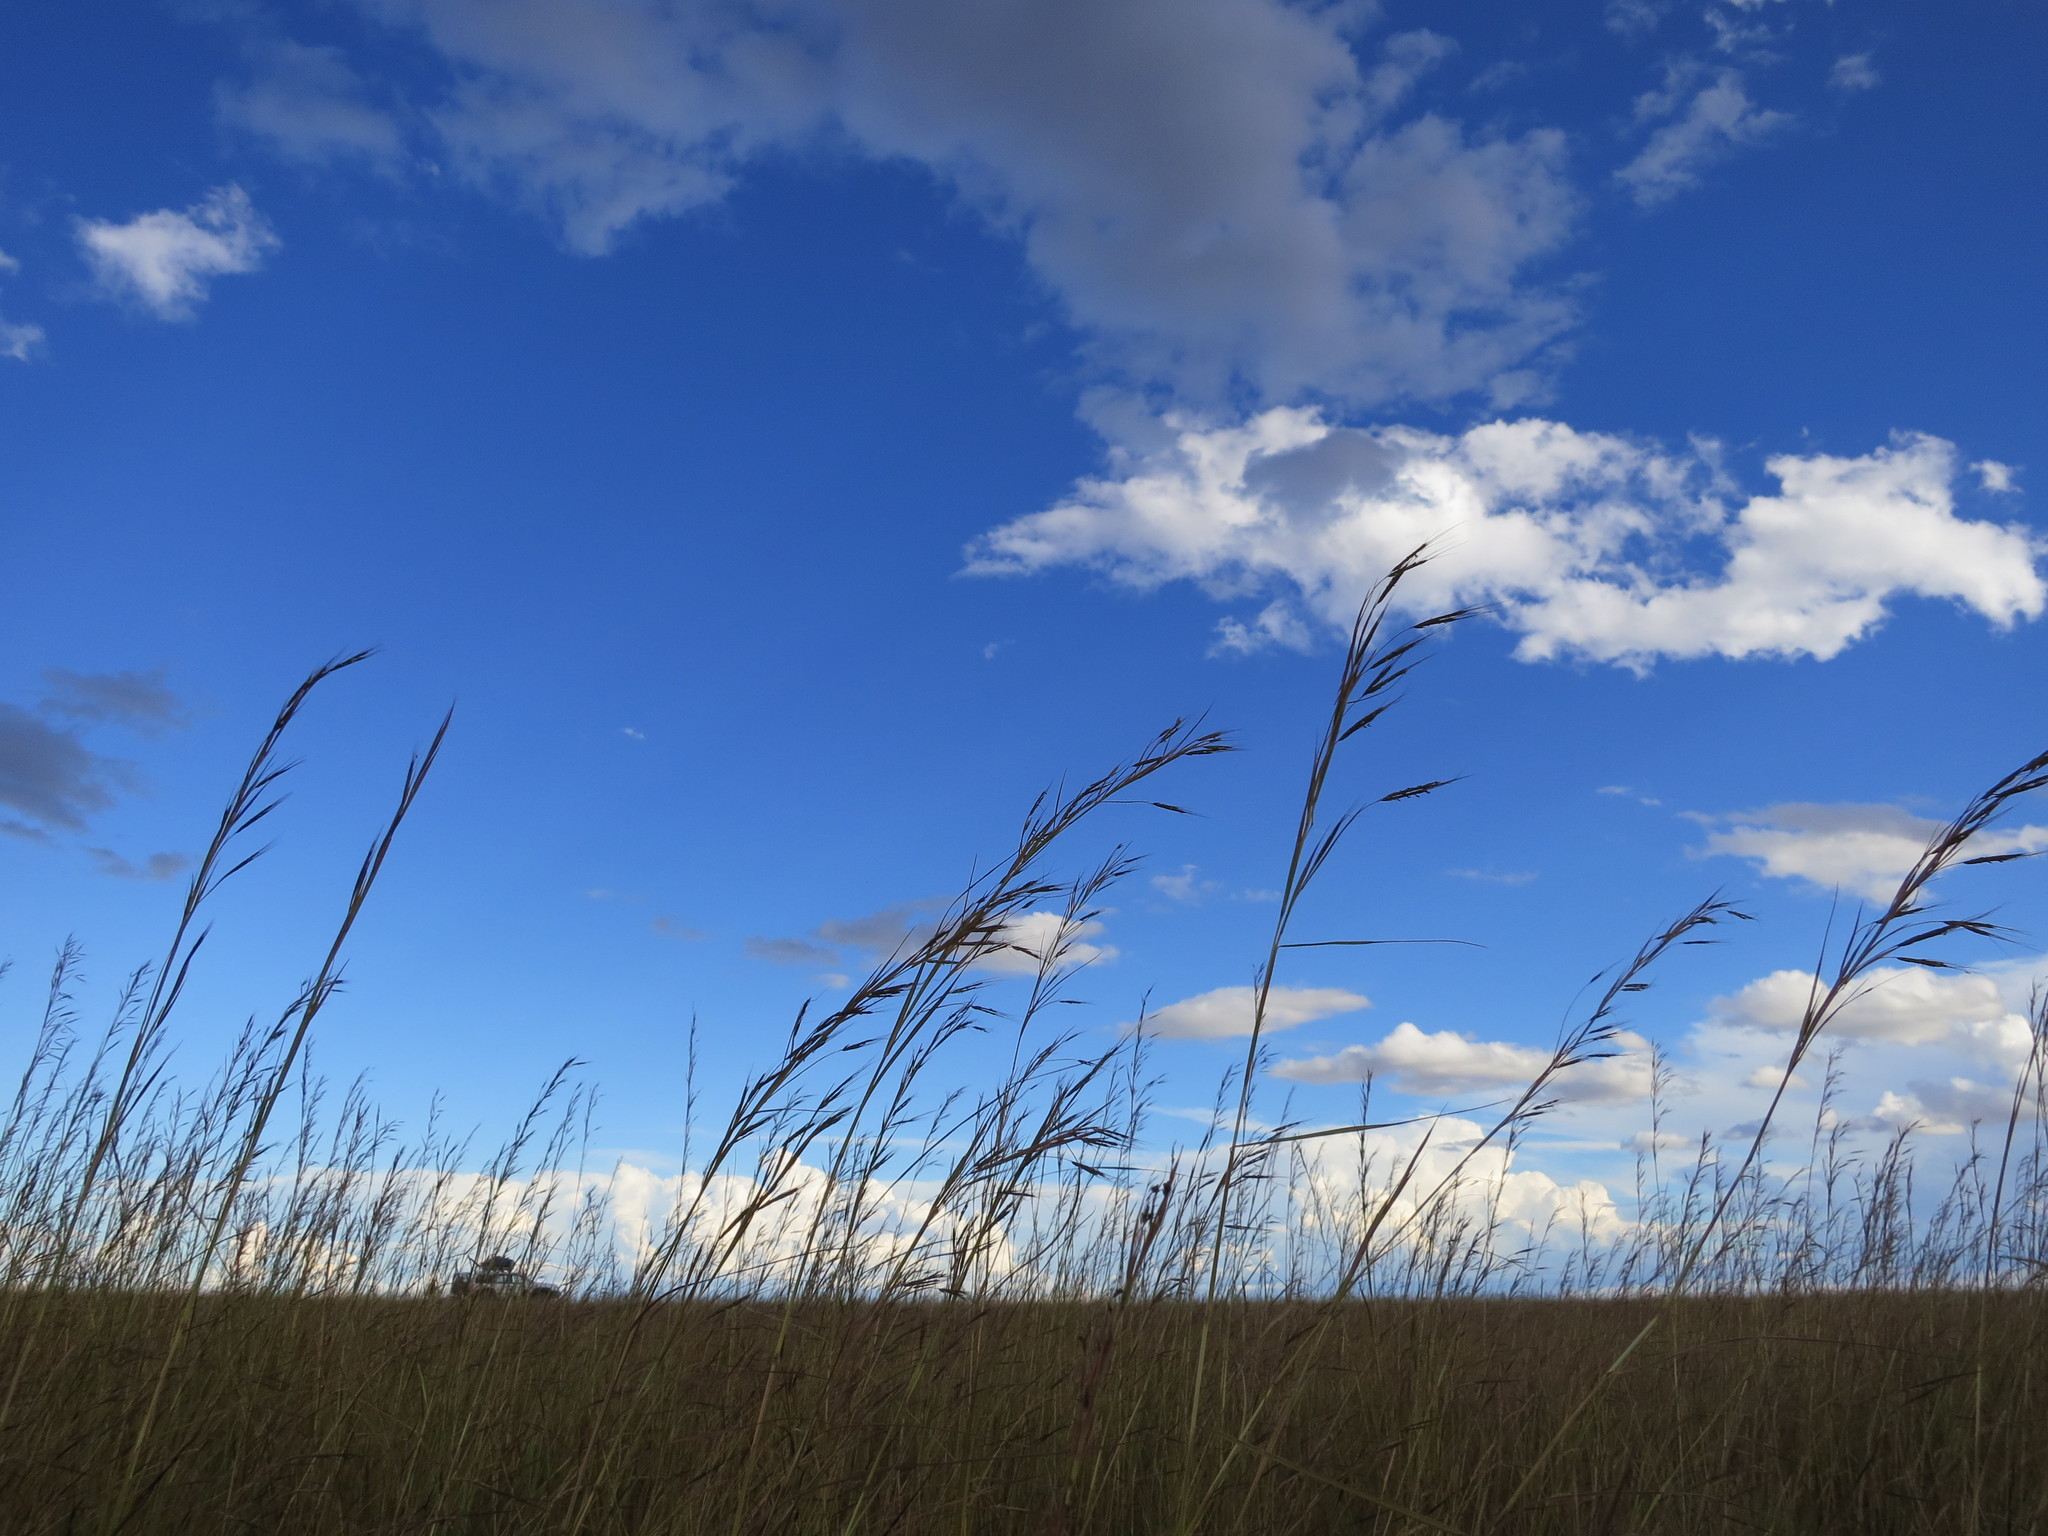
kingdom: Plantae
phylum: Tracheophyta
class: Liliopsida
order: Poales
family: Poaceae
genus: Hyparrhenia
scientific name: Hyparrhenia rufa
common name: Jaraguagrass
